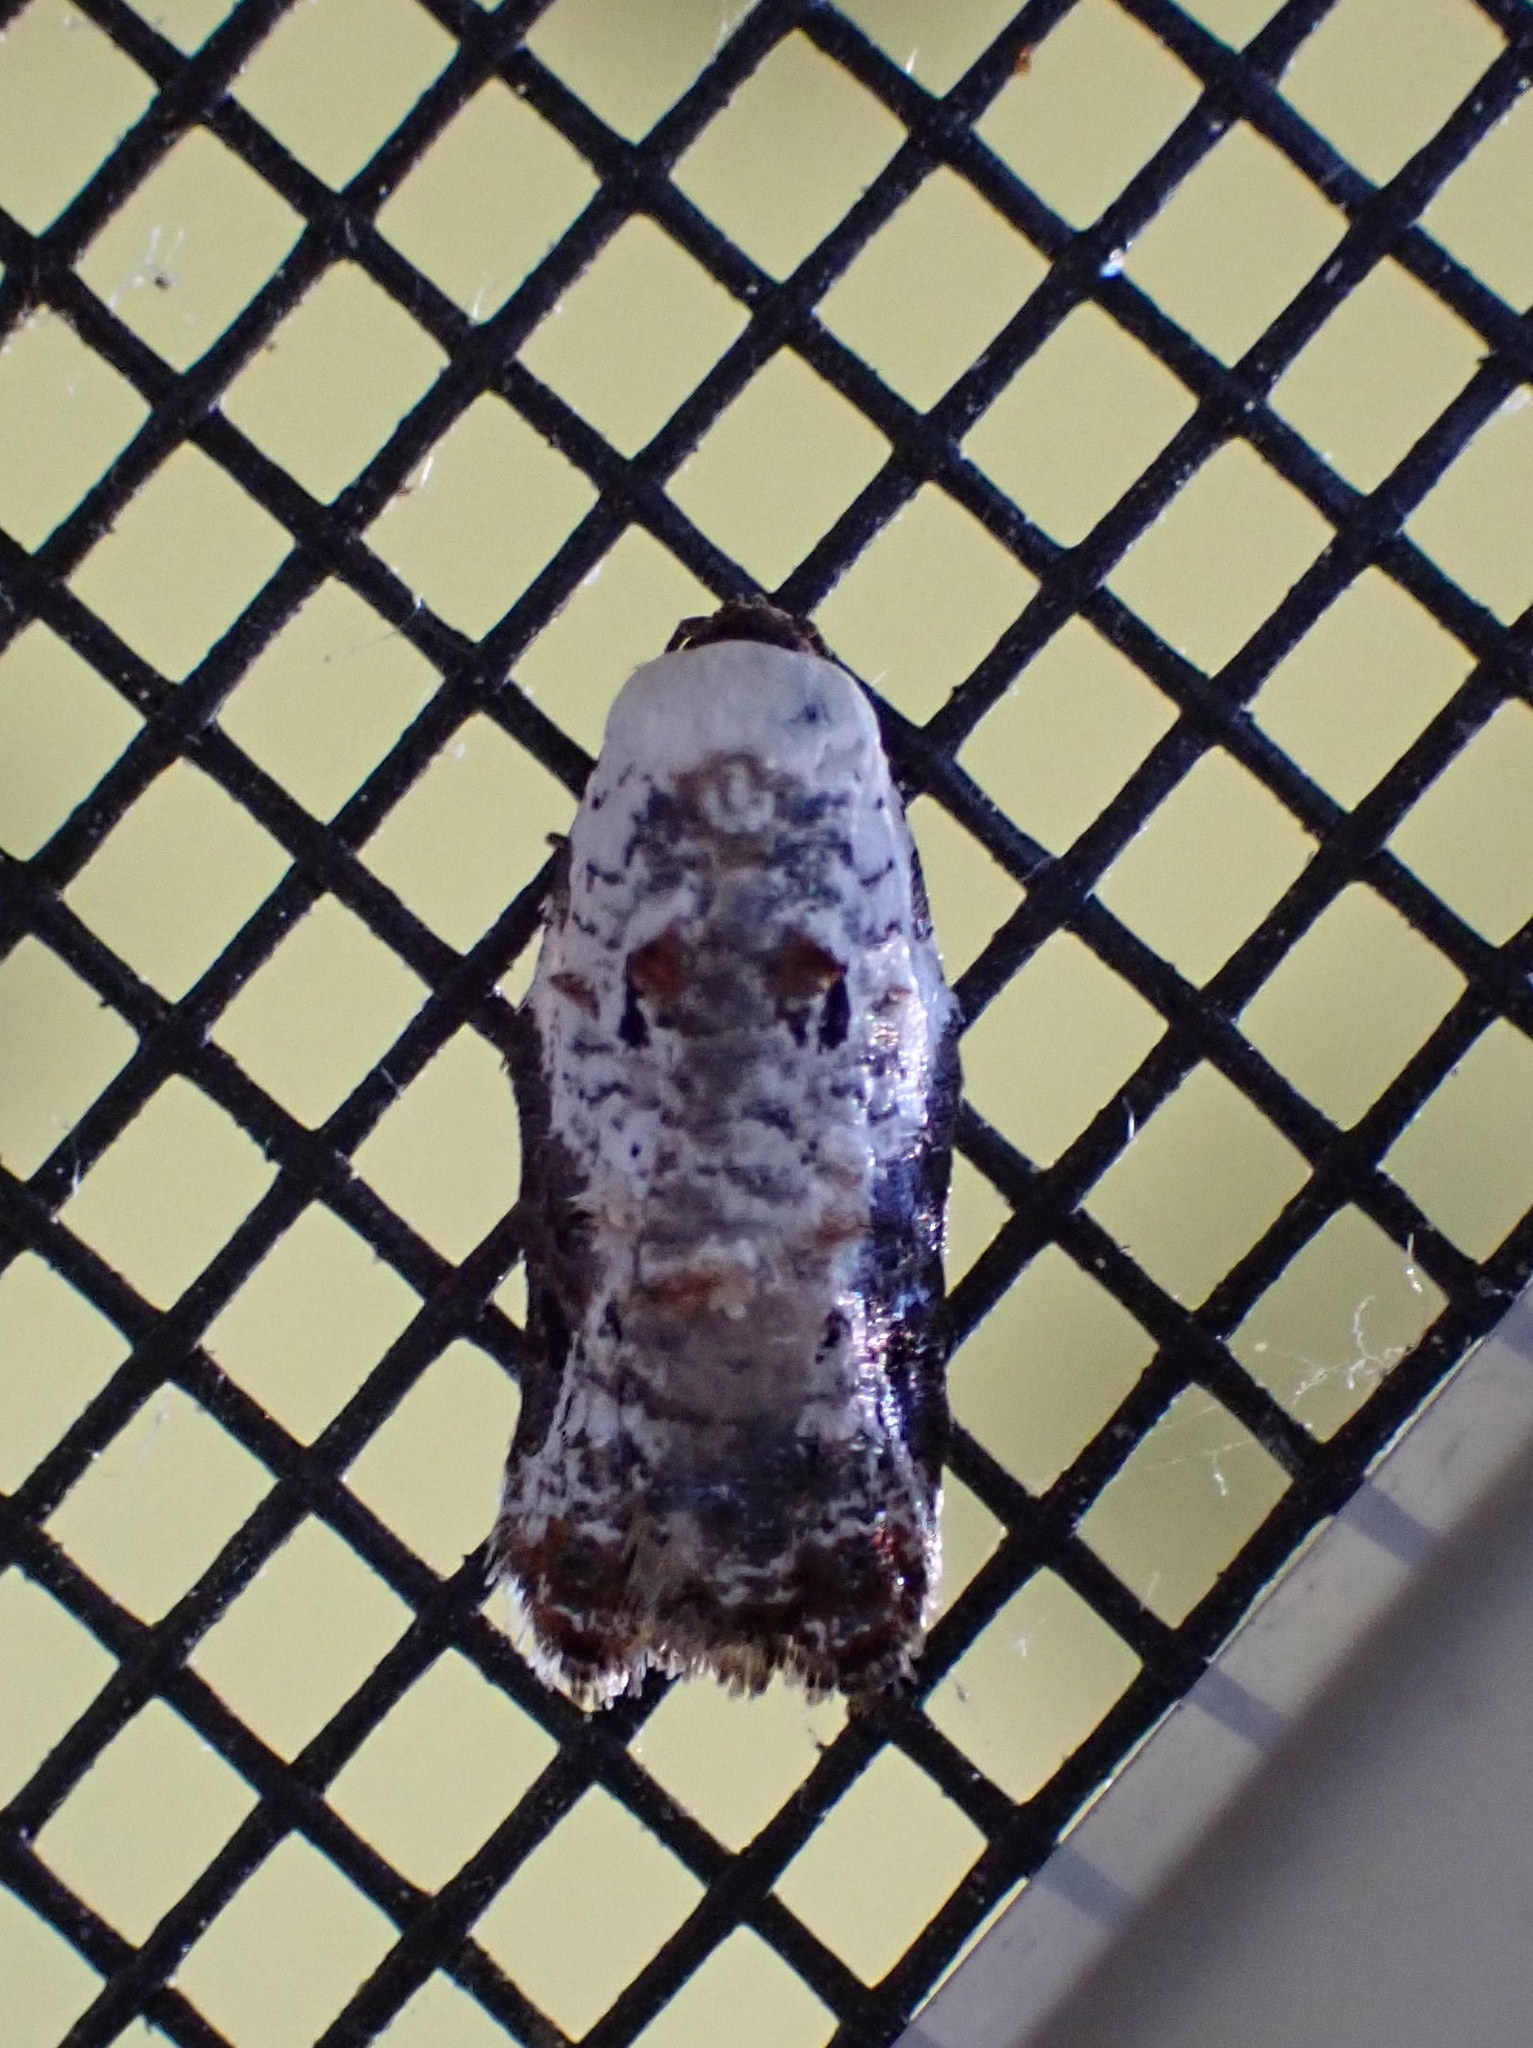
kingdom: Animalia
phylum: Arthropoda
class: Insecta
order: Lepidoptera
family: Tortricidae
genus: Acleris
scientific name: Acleris nivisellana
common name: Snowy-shouldered acleris moth
